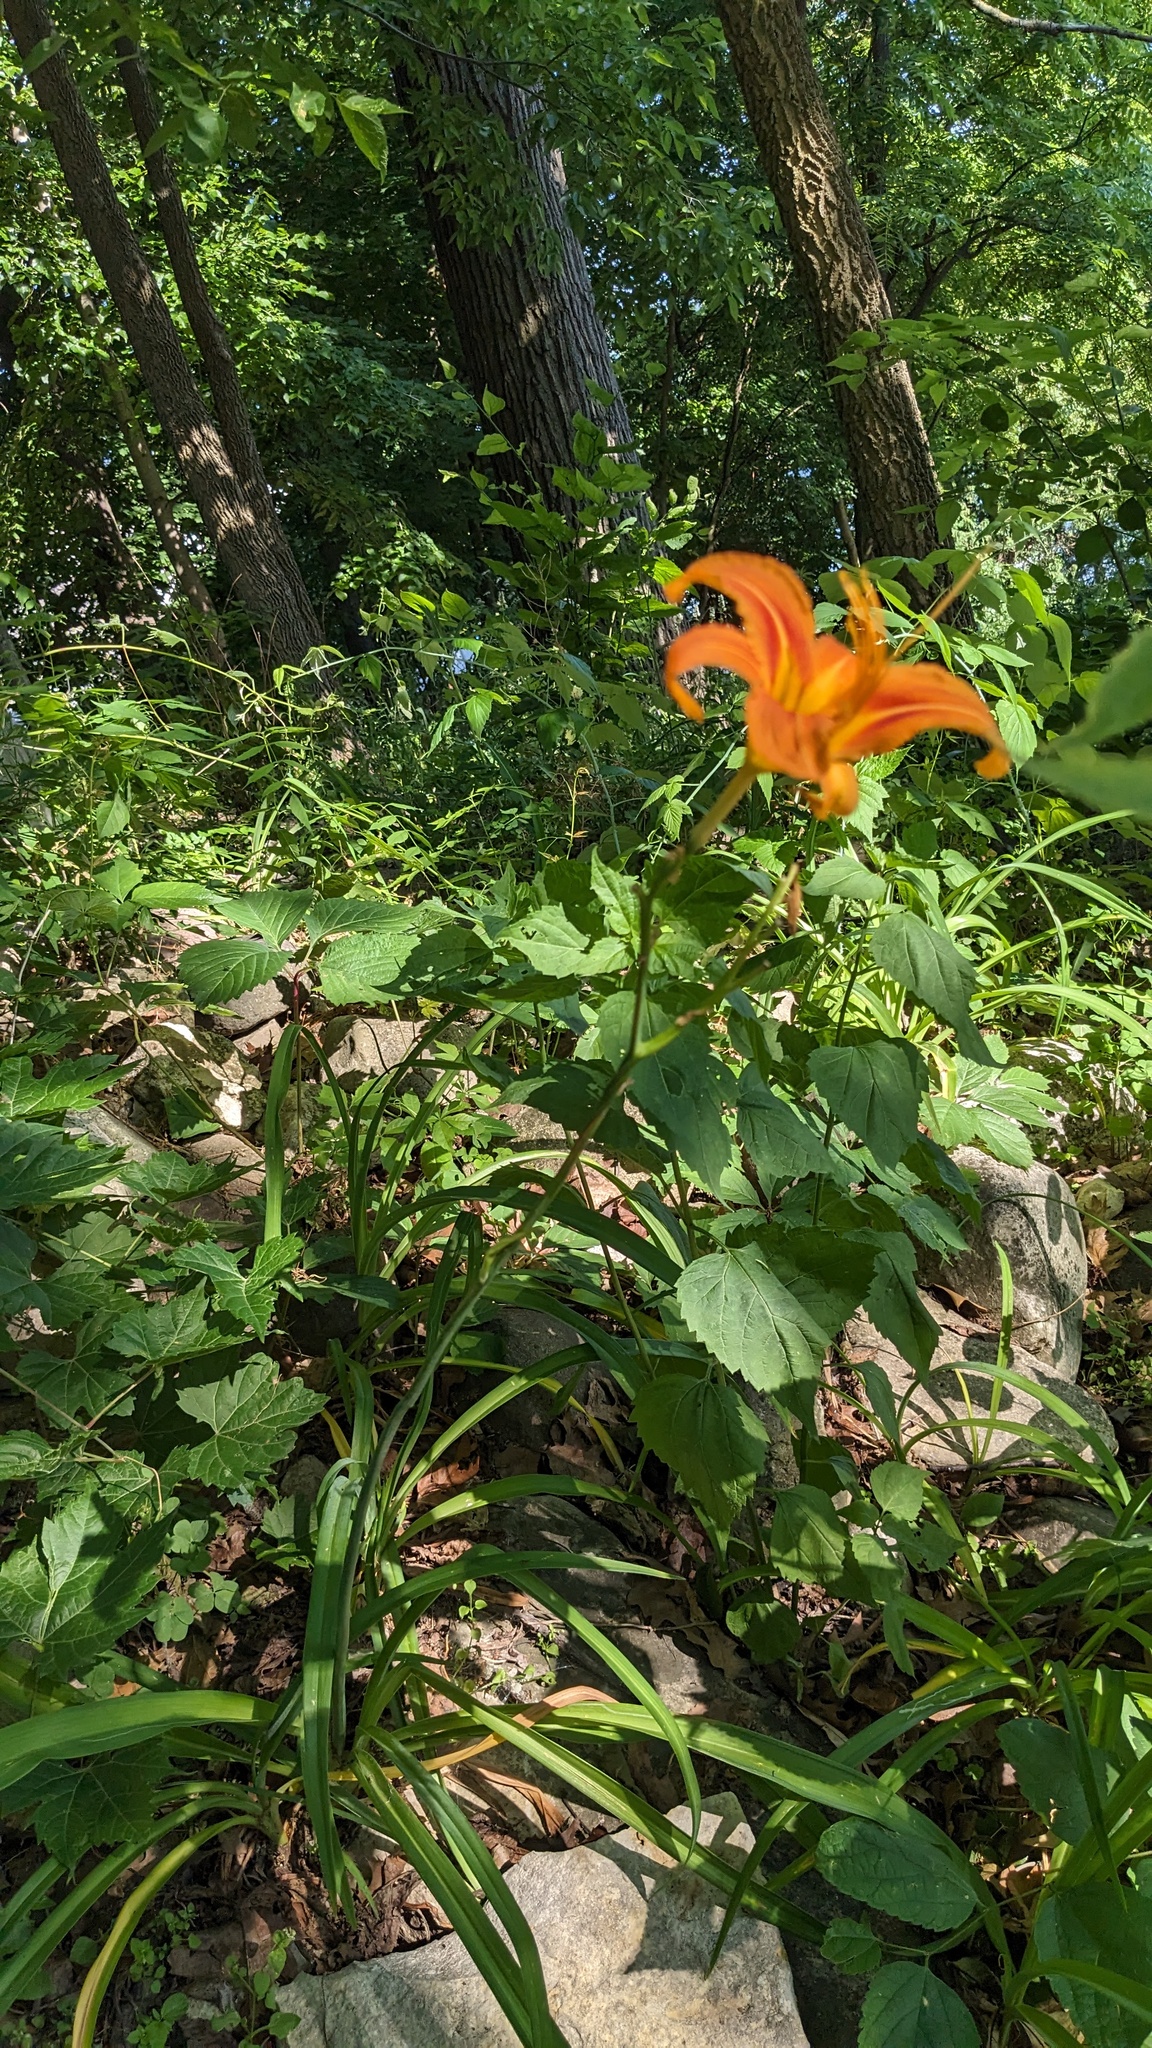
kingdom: Plantae
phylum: Tracheophyta
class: Liliopsida
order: Asparagales
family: Asphodelaceae
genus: Hemerocallis
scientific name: Hemerocallis fulva
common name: Orange day-lily
